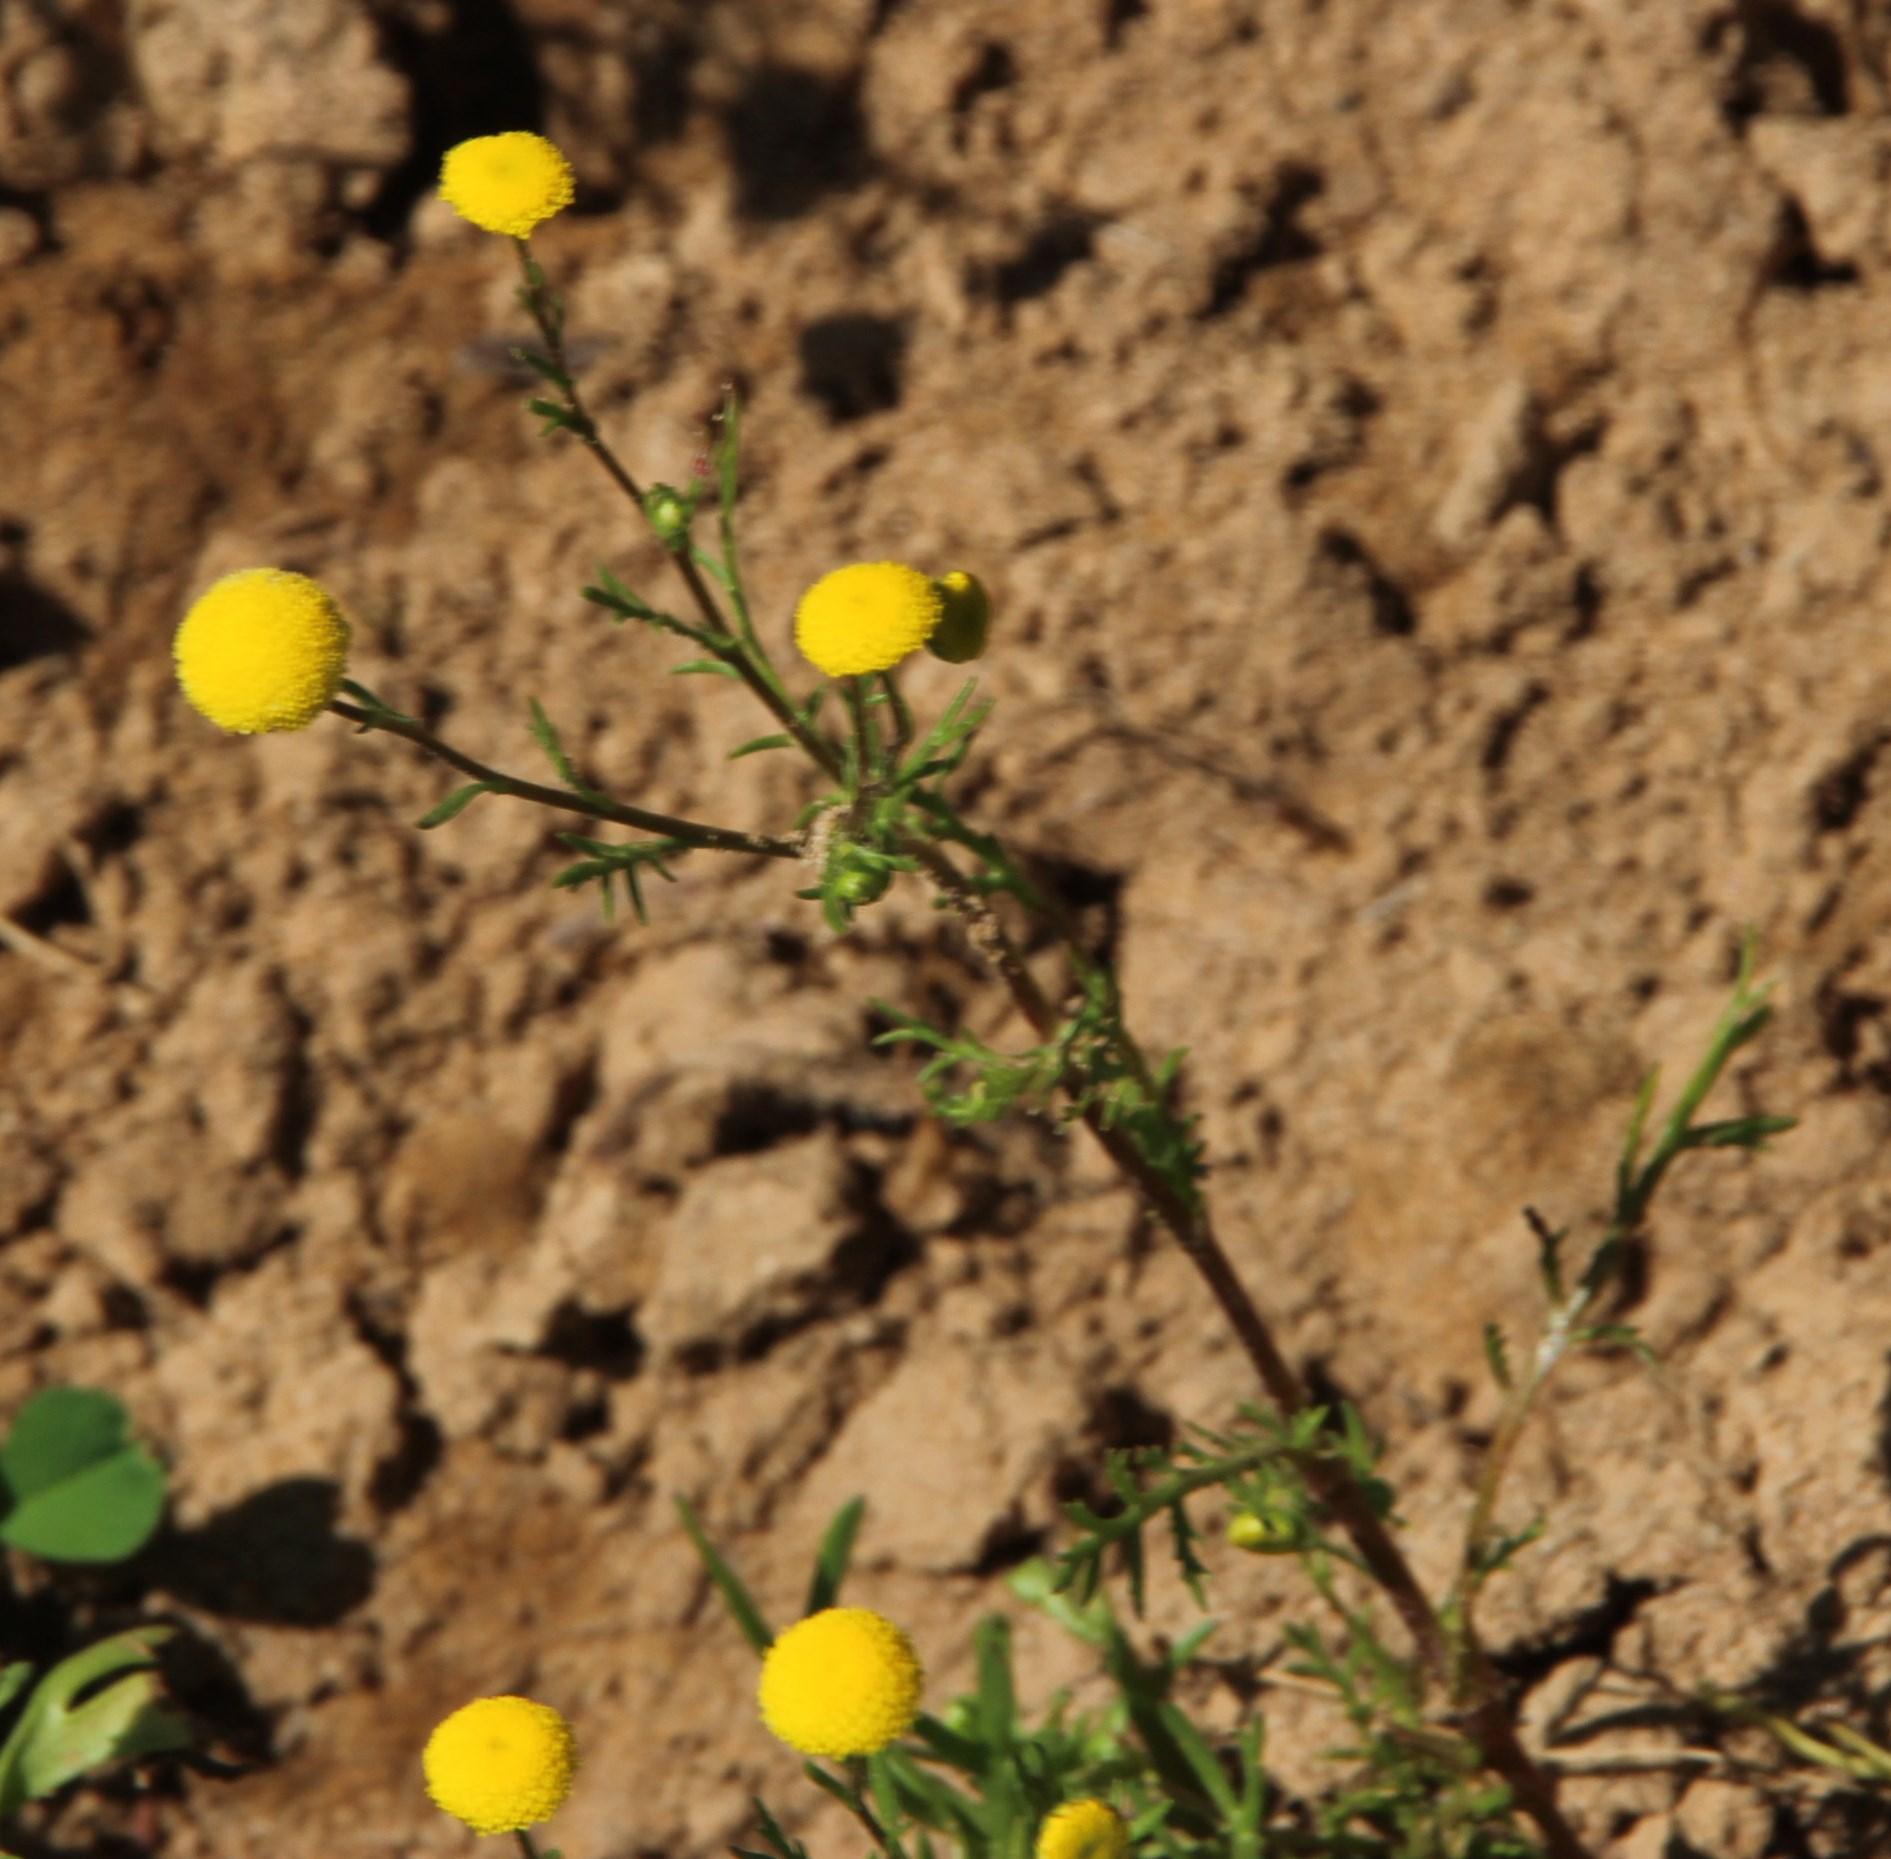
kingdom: Plantae
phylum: Tracheophyta
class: Magnoliopsida
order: Asterales
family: Asteraceae
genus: Oncosiphon
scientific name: Oncosiphon grandiflorus
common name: Swollen-flowered maywood
